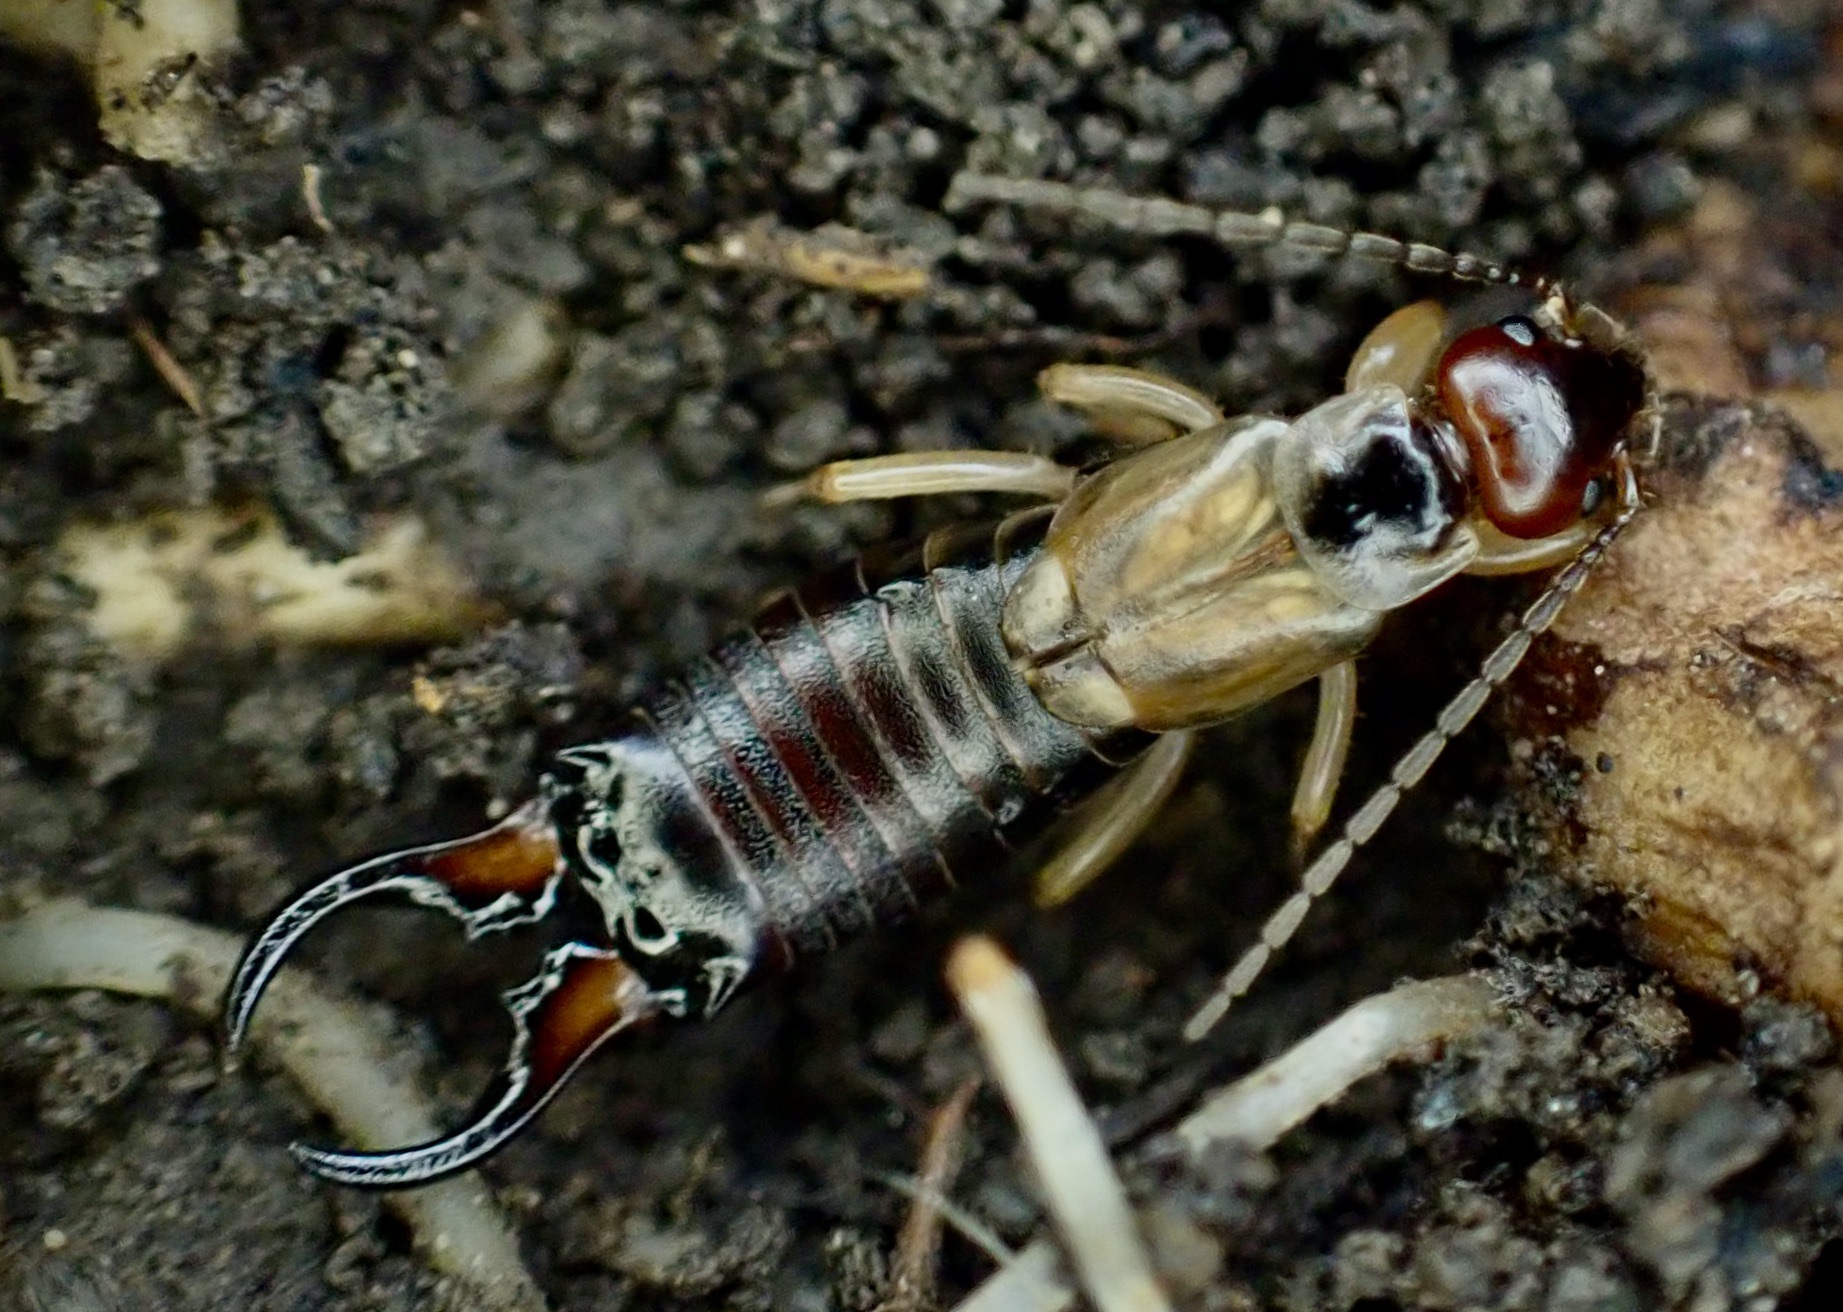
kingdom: Animalia
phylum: Arthropoda
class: Insecta
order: Dermaptera
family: Forficulidae
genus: Forficula
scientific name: Forficula
